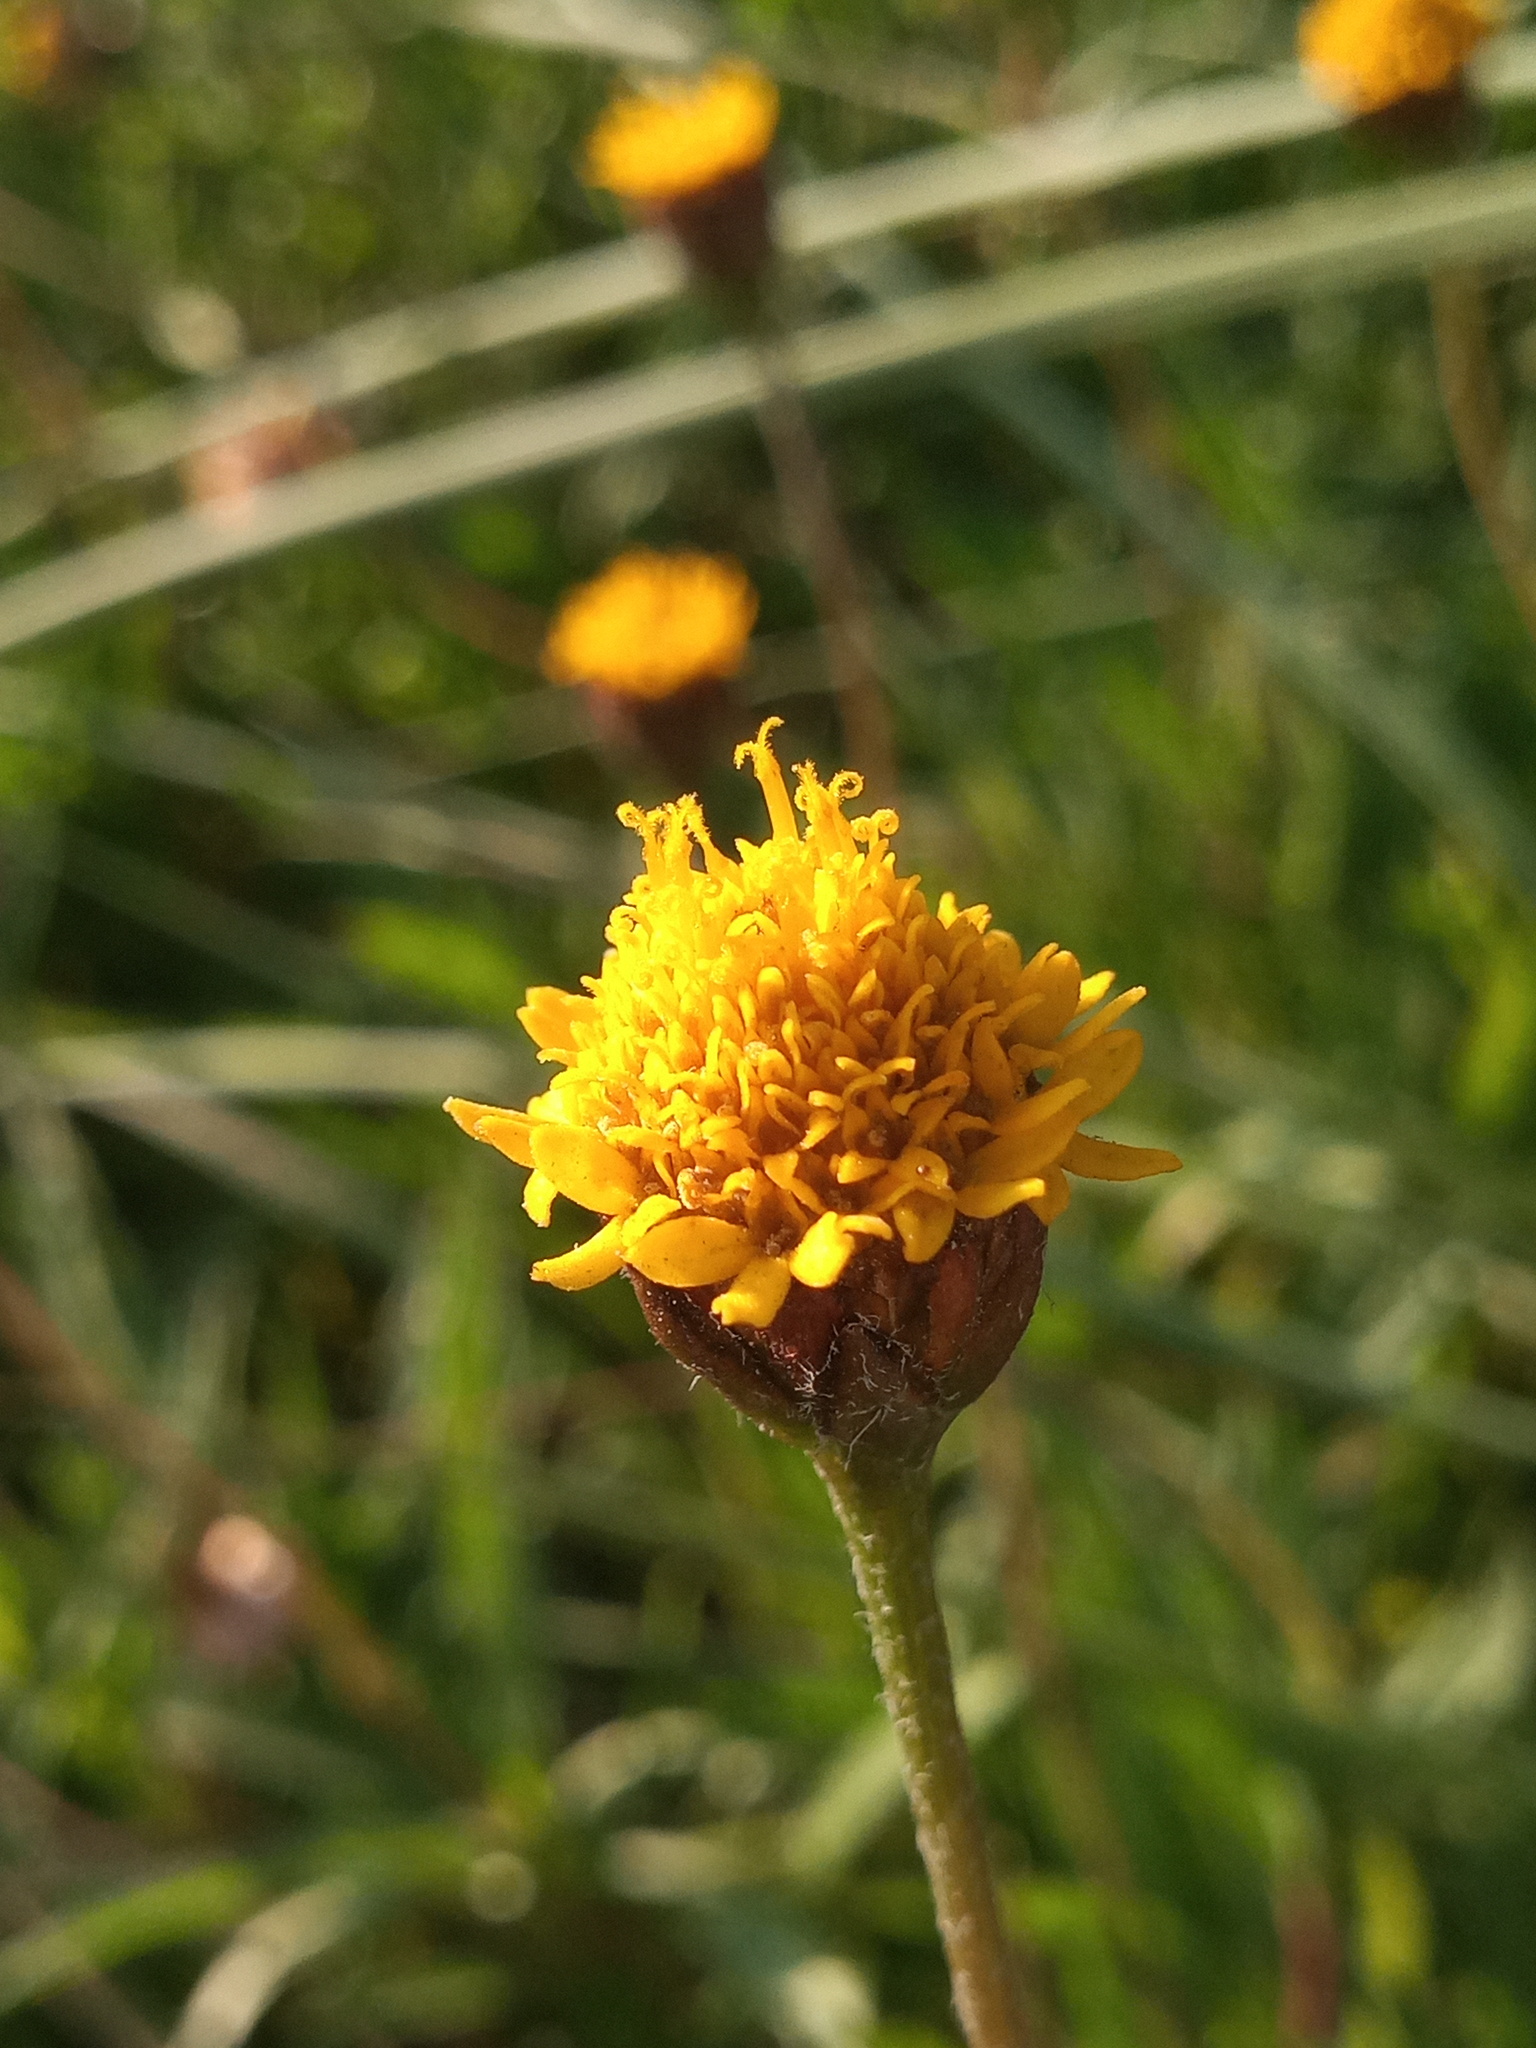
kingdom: Plantae
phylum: Tracheophyta
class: Magnoliopsida
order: Asterales
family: Asteraceae
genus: Tridax
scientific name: Tridax coronopifolia
